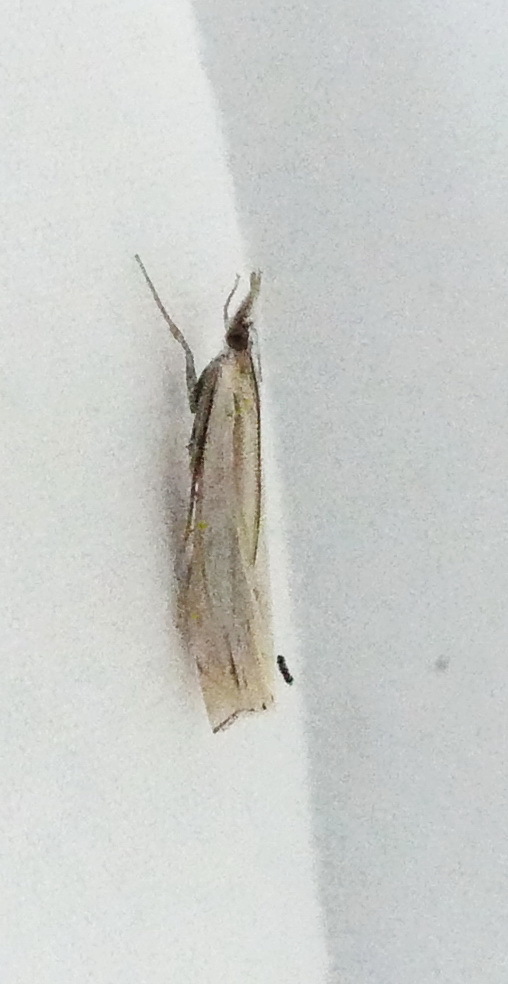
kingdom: Animalia
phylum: Arthropoda
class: Insecta
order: Lepidoptera
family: Crambidae
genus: Crambus
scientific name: Crambus pascuella
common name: Inlaid grass-veneer
